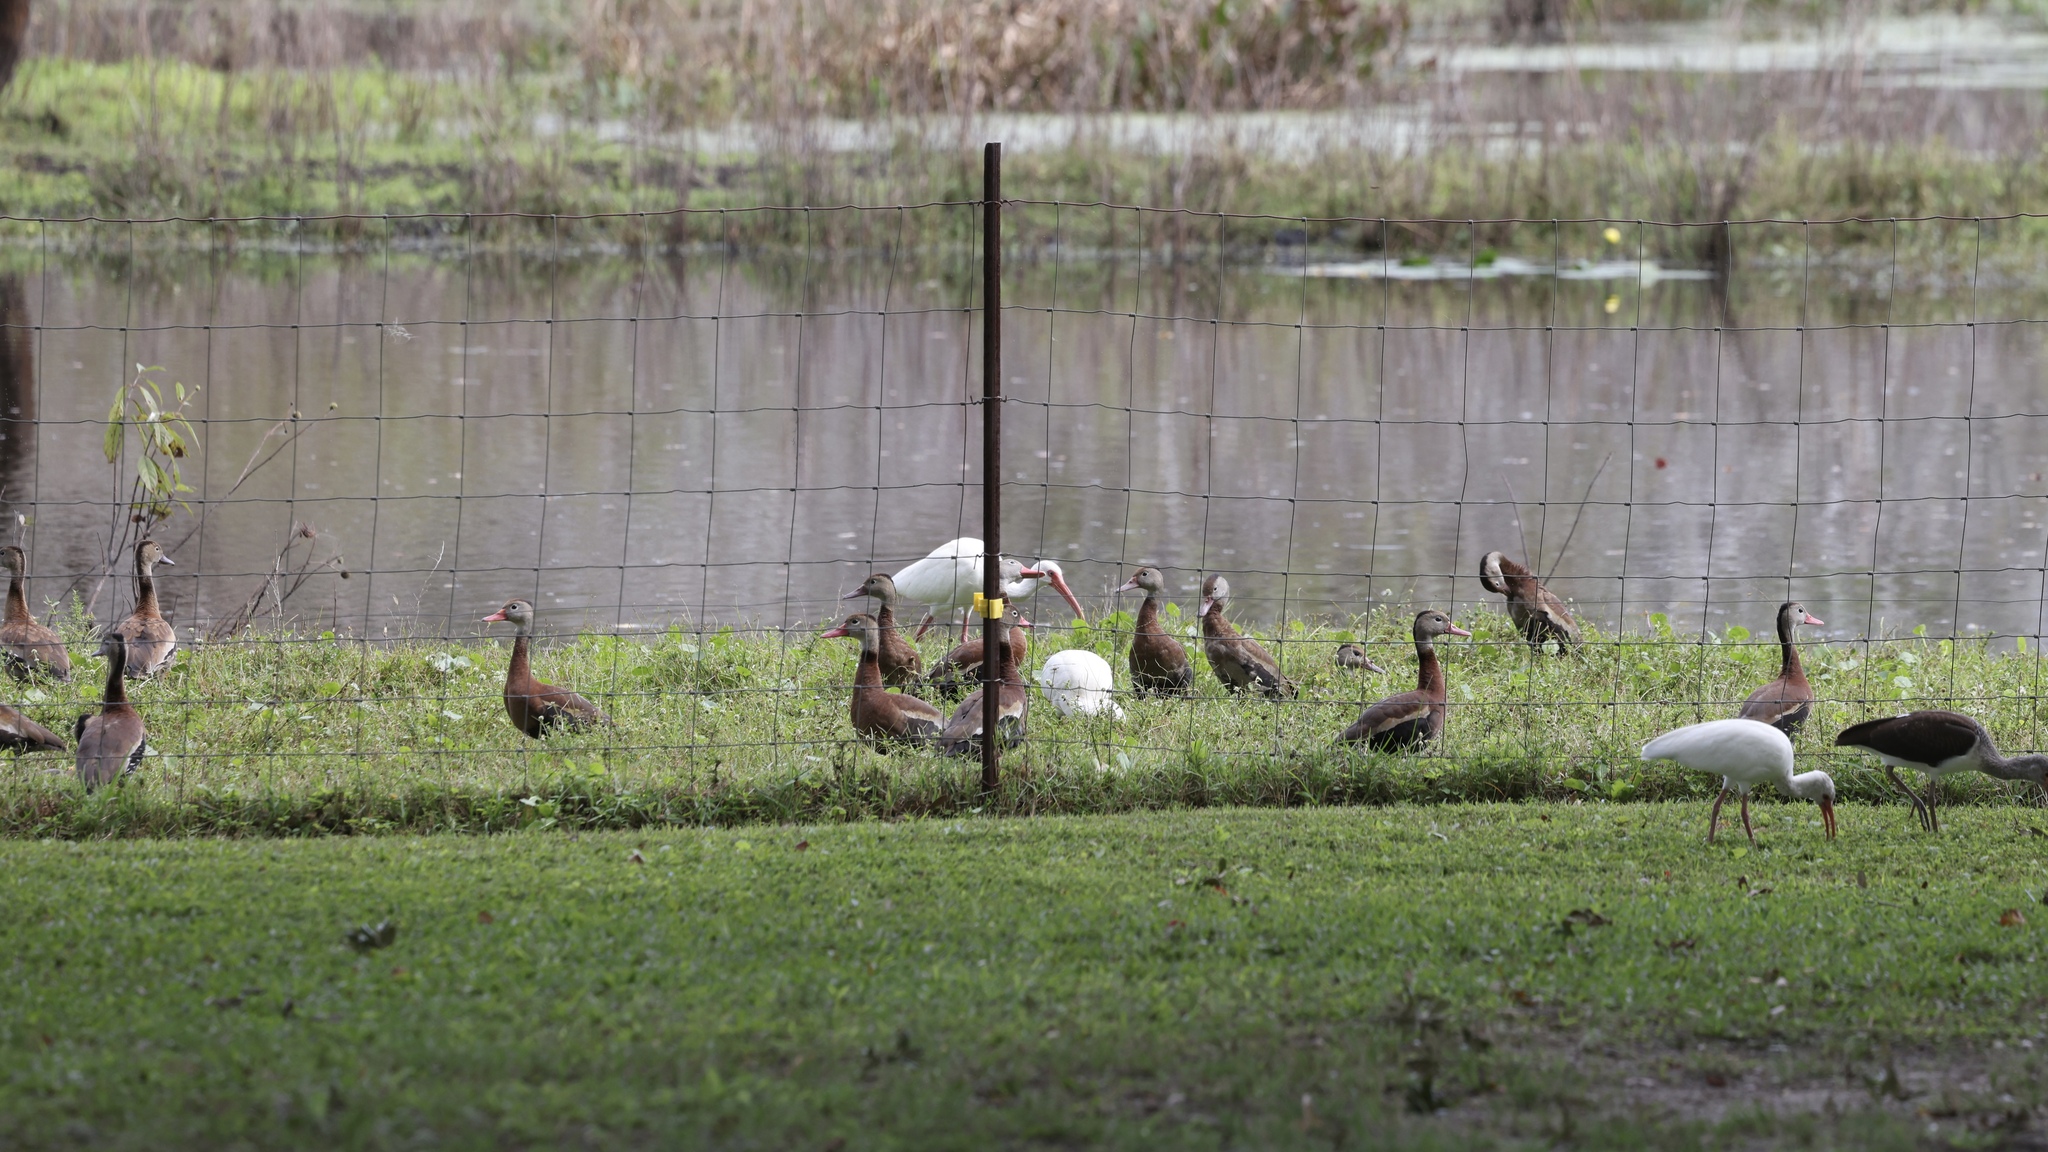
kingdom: Animalia
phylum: Chordata
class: Aves
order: Anseriformes
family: Anatidae
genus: Dendrocygna
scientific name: Dendrocygna autumnalis
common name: Black-bellied whistling duck
